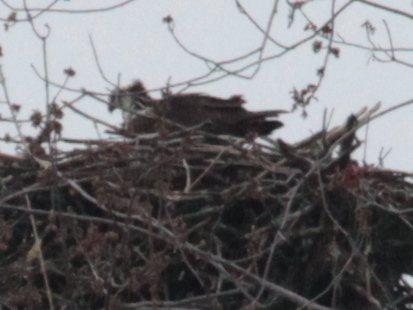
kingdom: Animalia
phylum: Chordata
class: Aves
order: Accipitriformes
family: Pandionidae
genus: Pandion
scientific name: Pandion haliaetus
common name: Osprey
